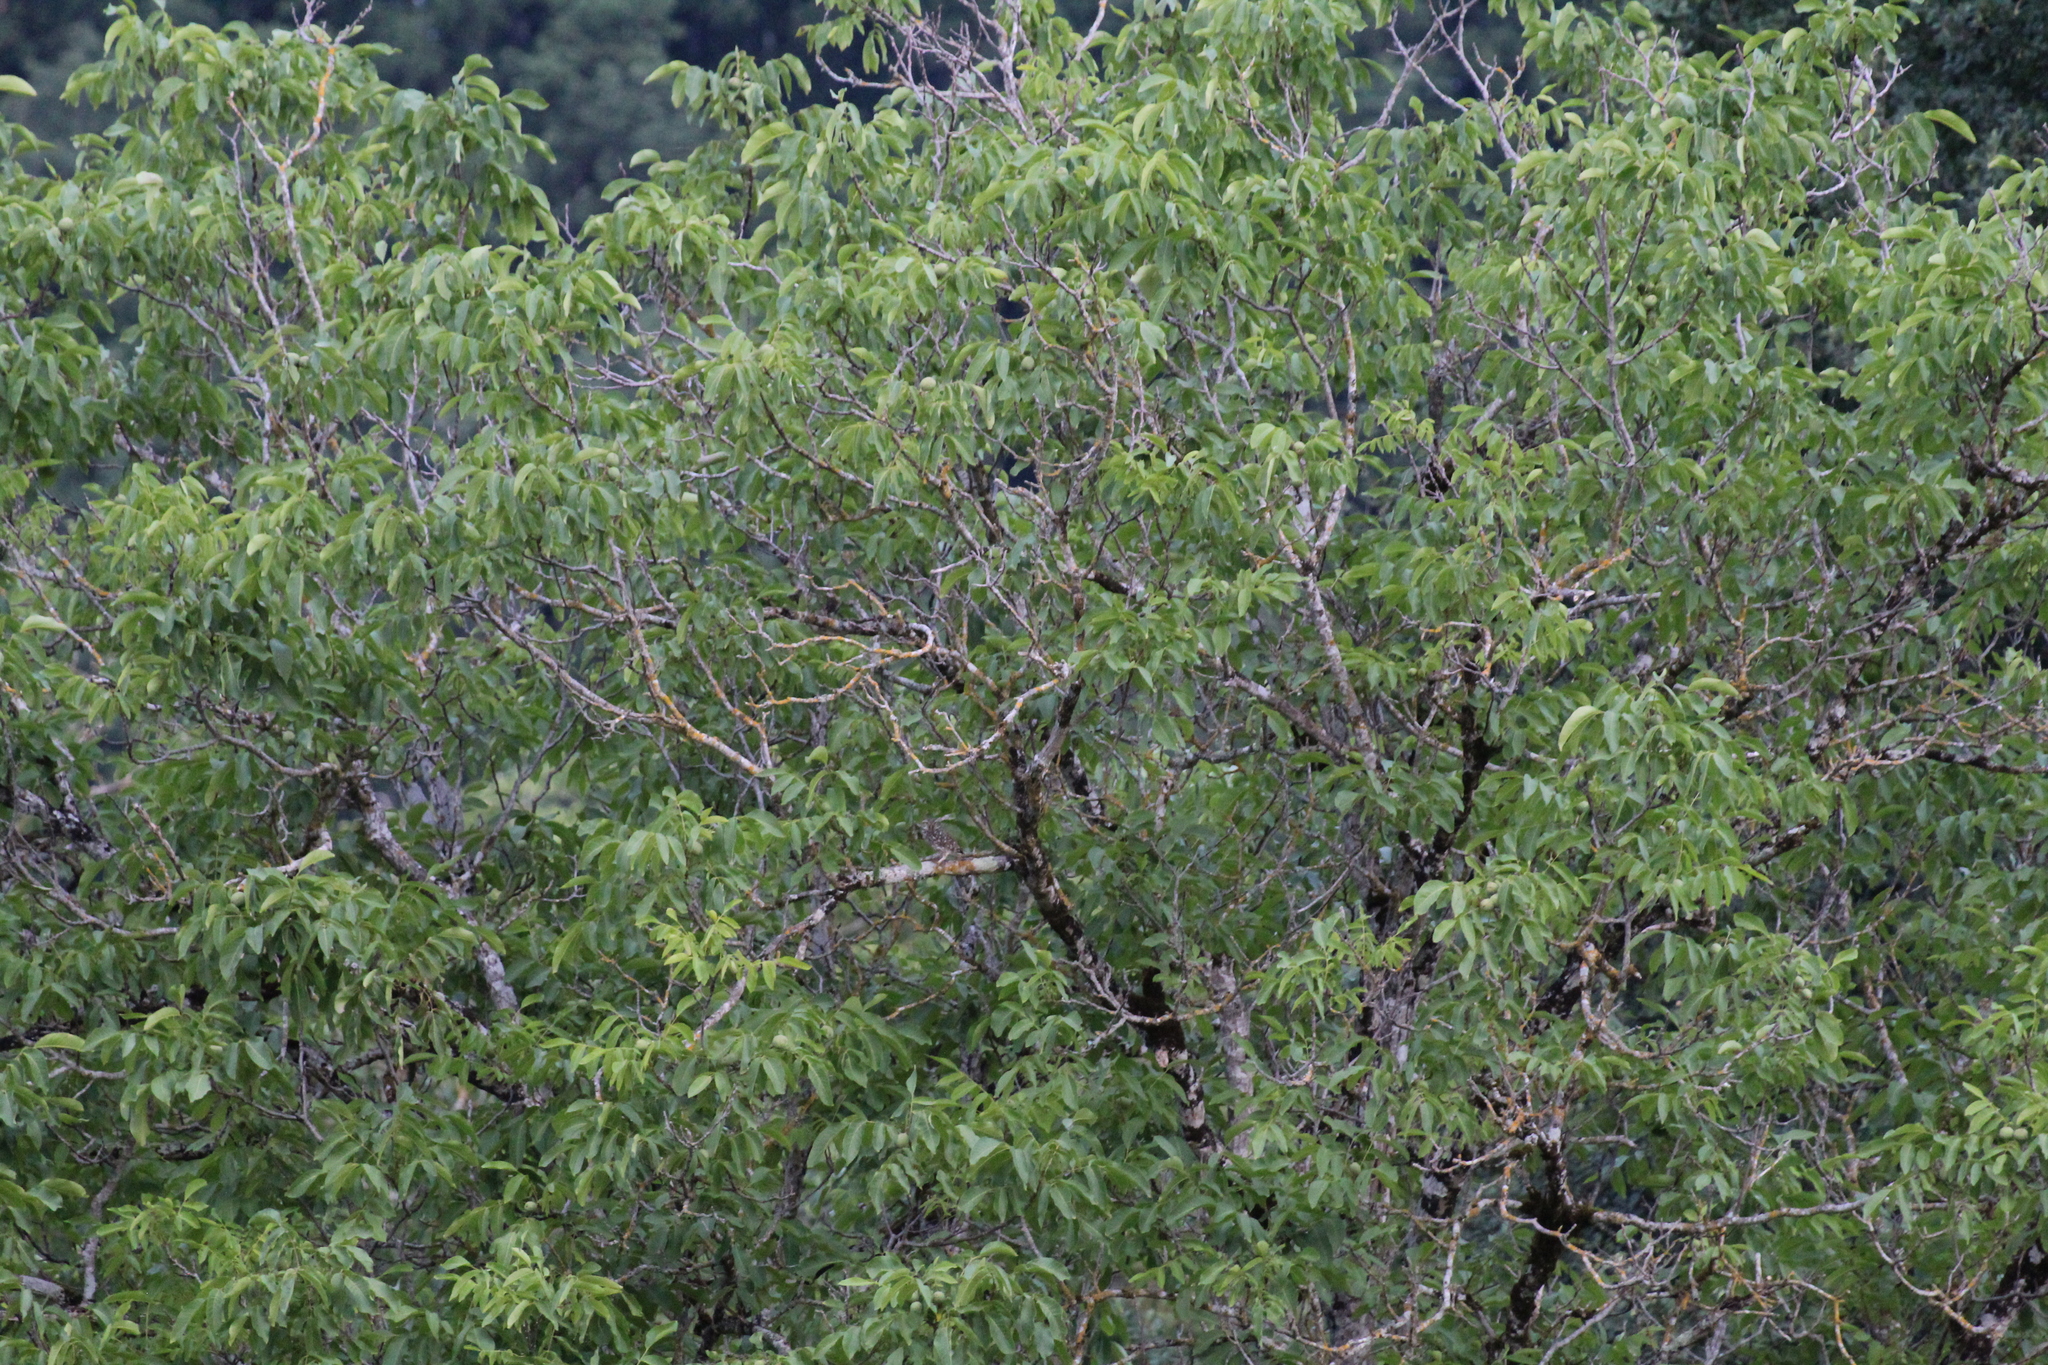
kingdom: Animalia
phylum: Chordata
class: Aves
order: Strigiformes
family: Strigidae
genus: Athene
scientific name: Athene noctua
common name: Little owl
